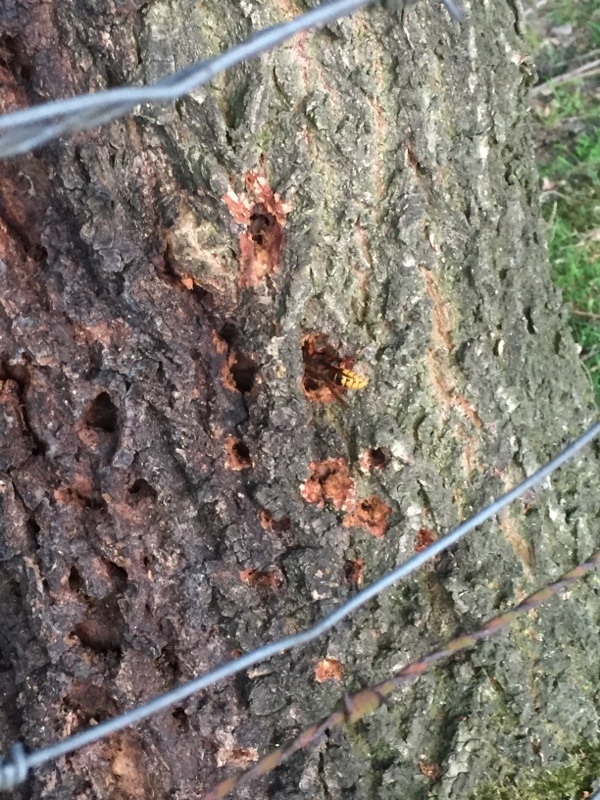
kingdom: Animalia
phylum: Arthropoda
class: Insecta
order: Hymenoptera
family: Vespidae
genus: Vespa
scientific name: Vespa crabro
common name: Hornet
